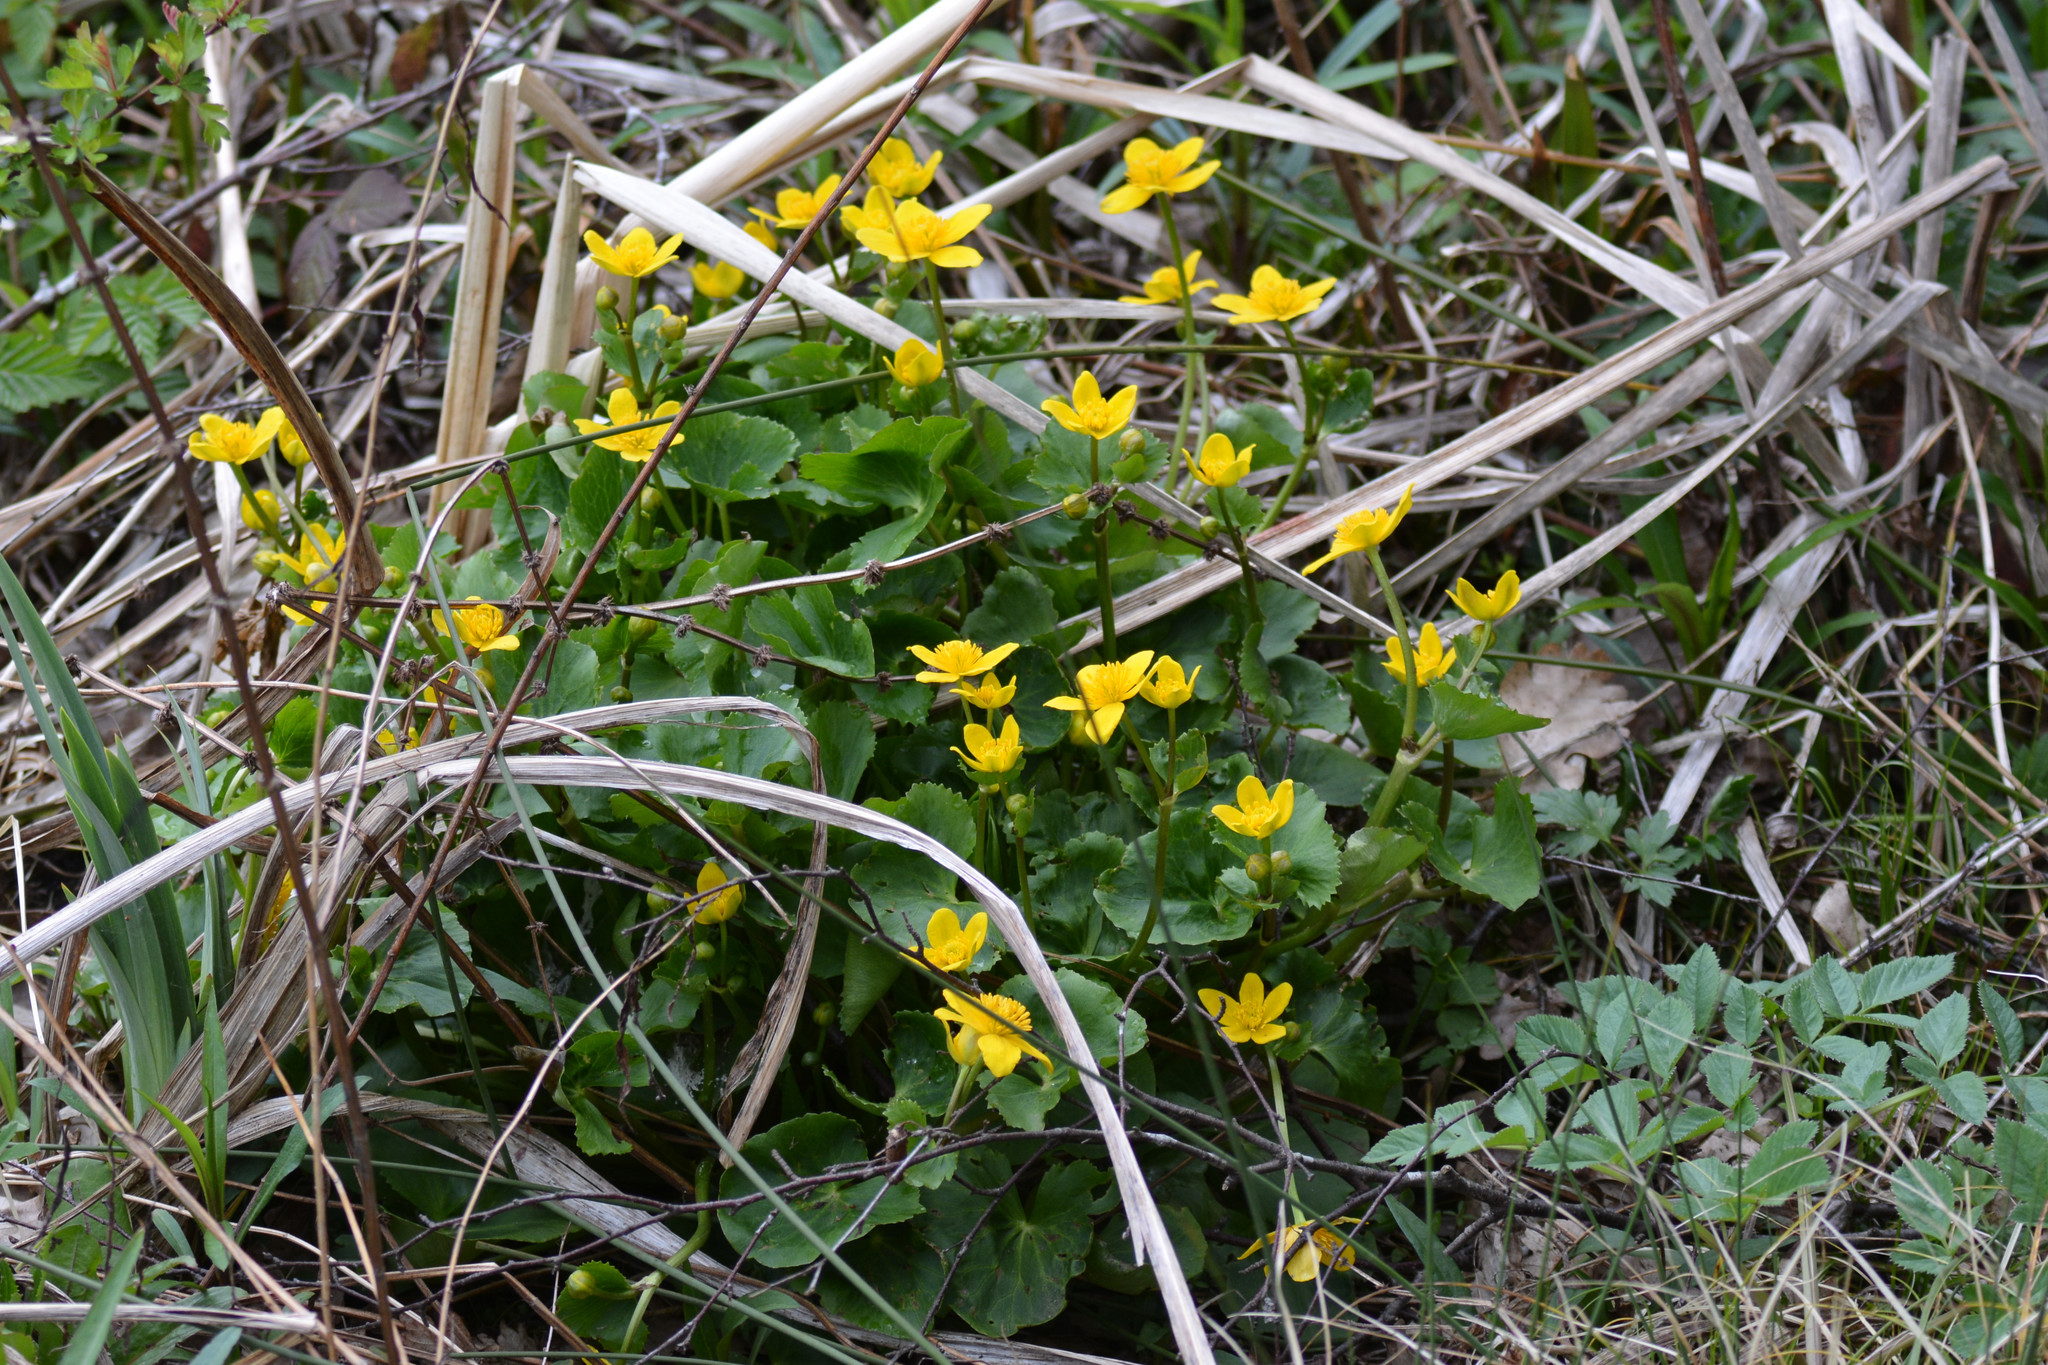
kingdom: Plantae
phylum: Tracheophyta
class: Magnoliopsida
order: Ranunculales
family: Ranunculaceae
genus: Caltha
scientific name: Caltha palustris
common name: Marsh marigold
